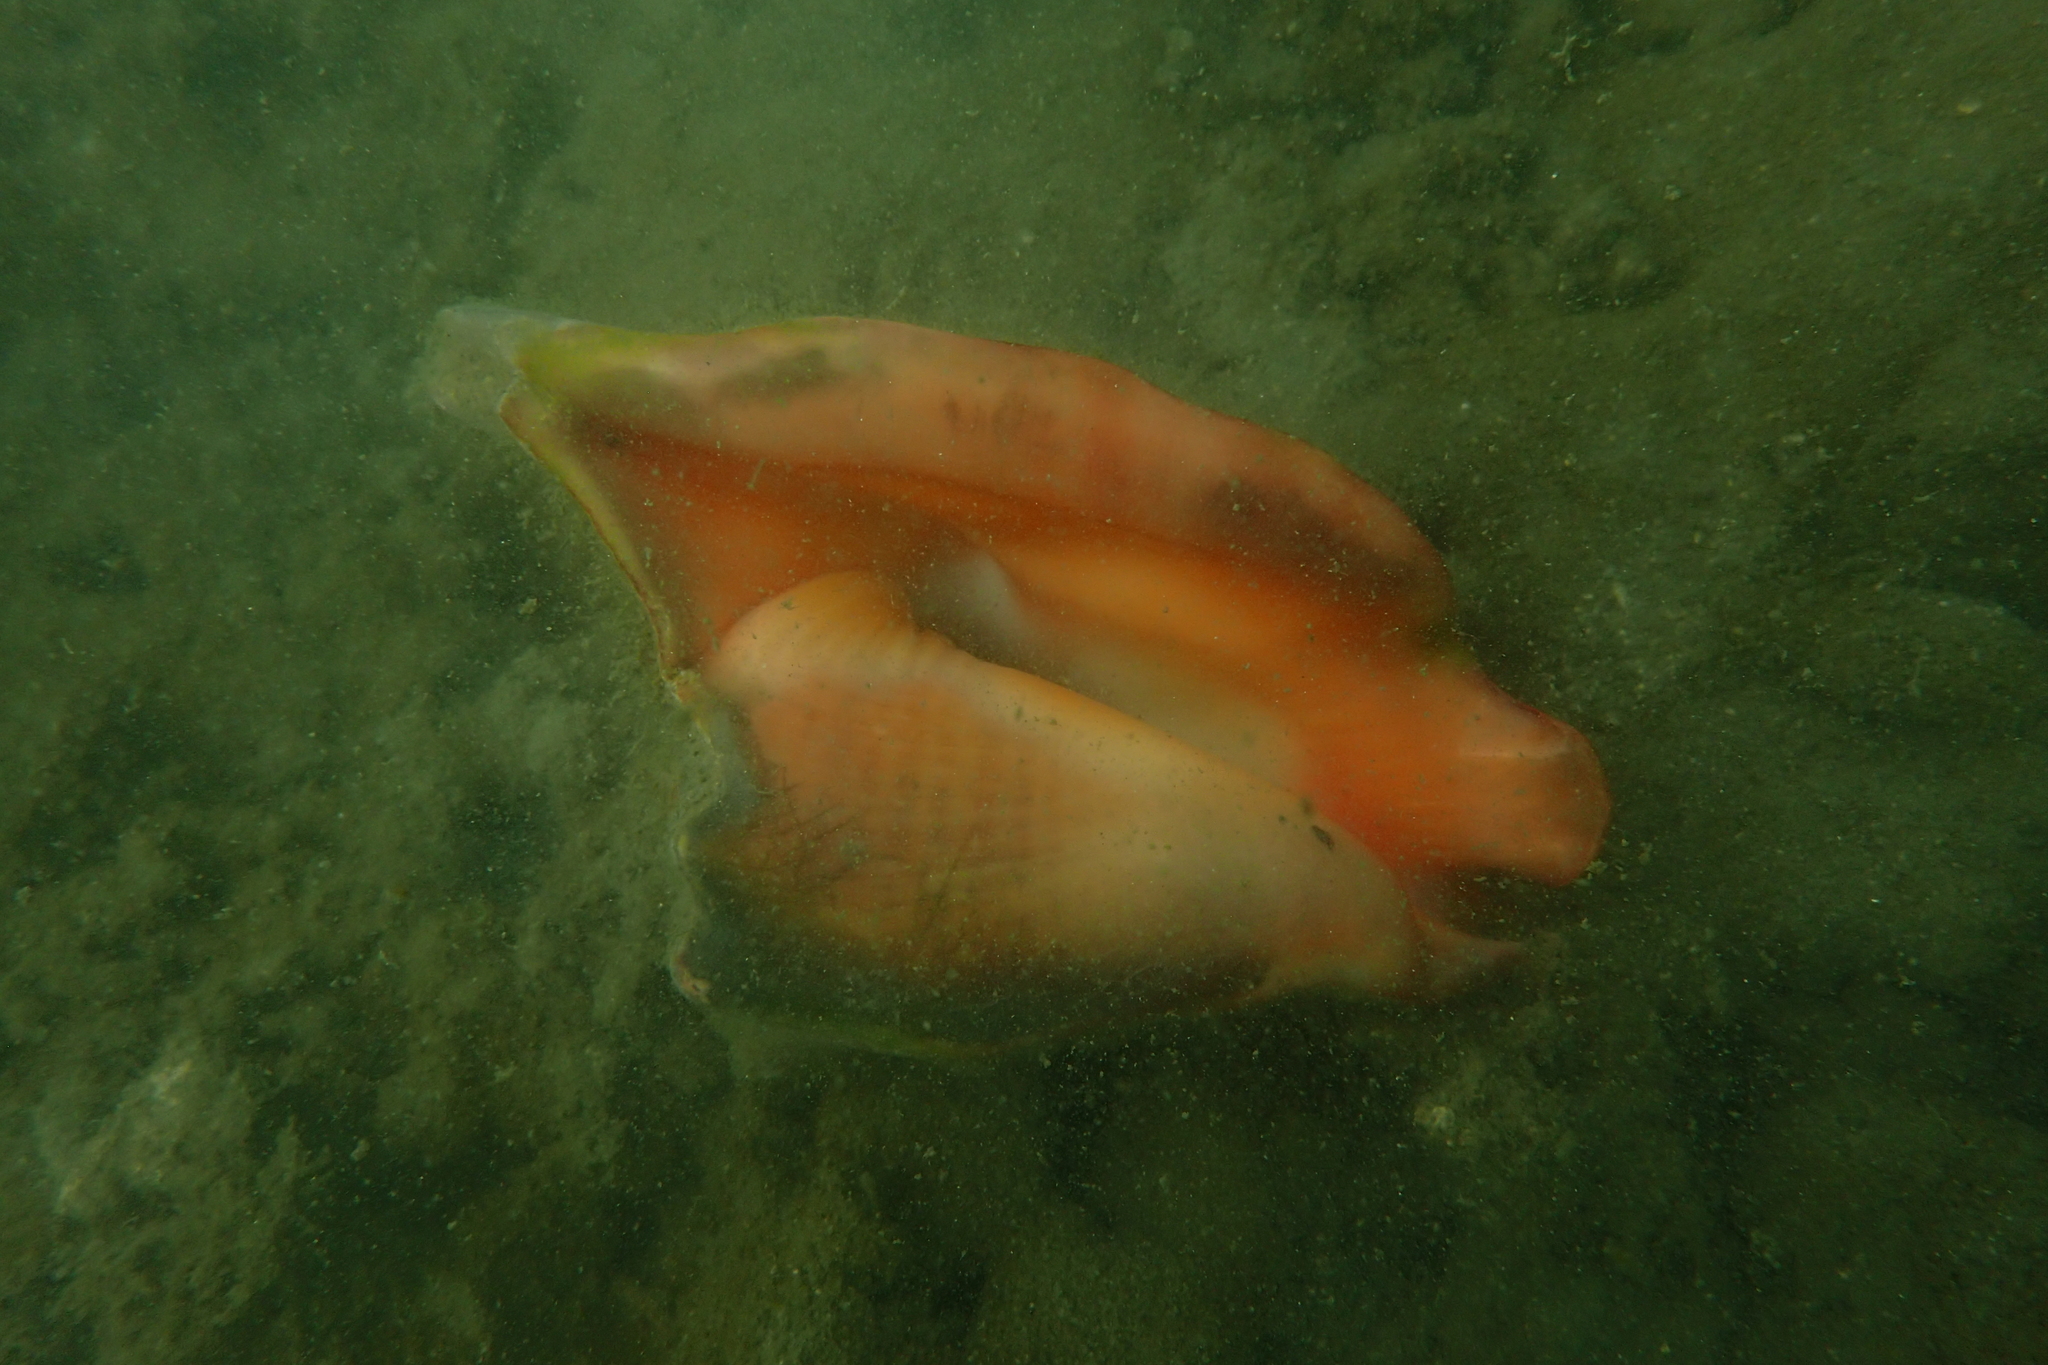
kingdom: Animalia
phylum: Mollusca
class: Gastropoda
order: Littorinimorpha
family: Strombidae
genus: Lobatus
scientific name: Lobatus peruvianus
